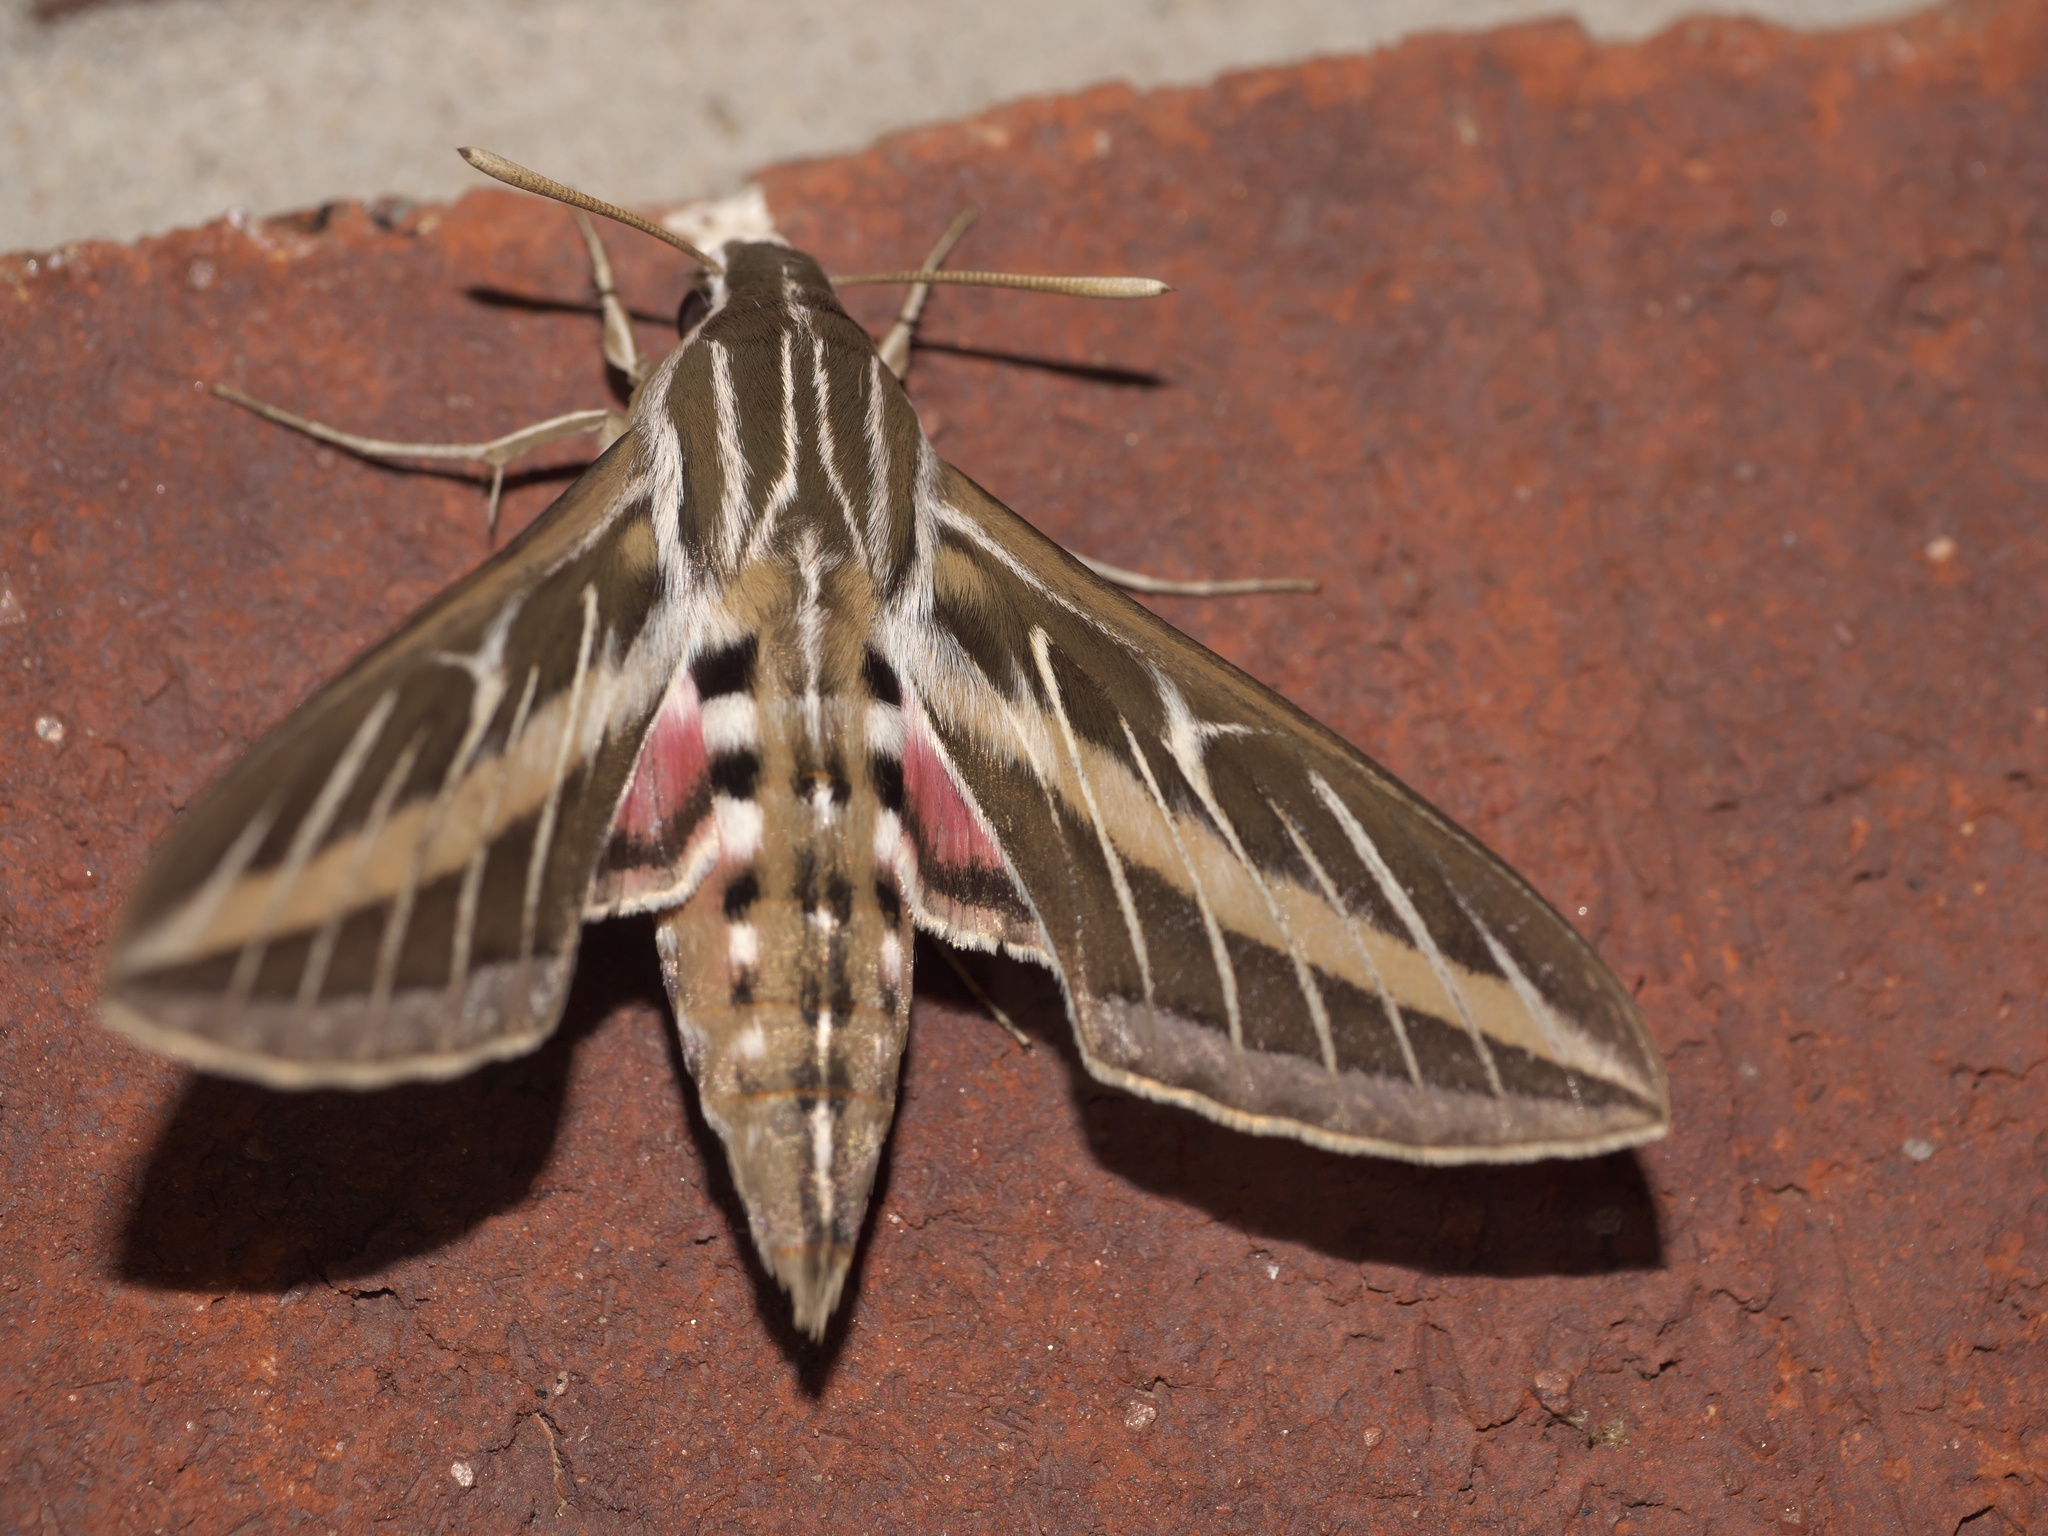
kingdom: Animalia
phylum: Arthropoda
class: Insecta
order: Lepidoptera
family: Sphingidae
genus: Hyles
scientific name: Hyles lineata
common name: White-lined sphinx
